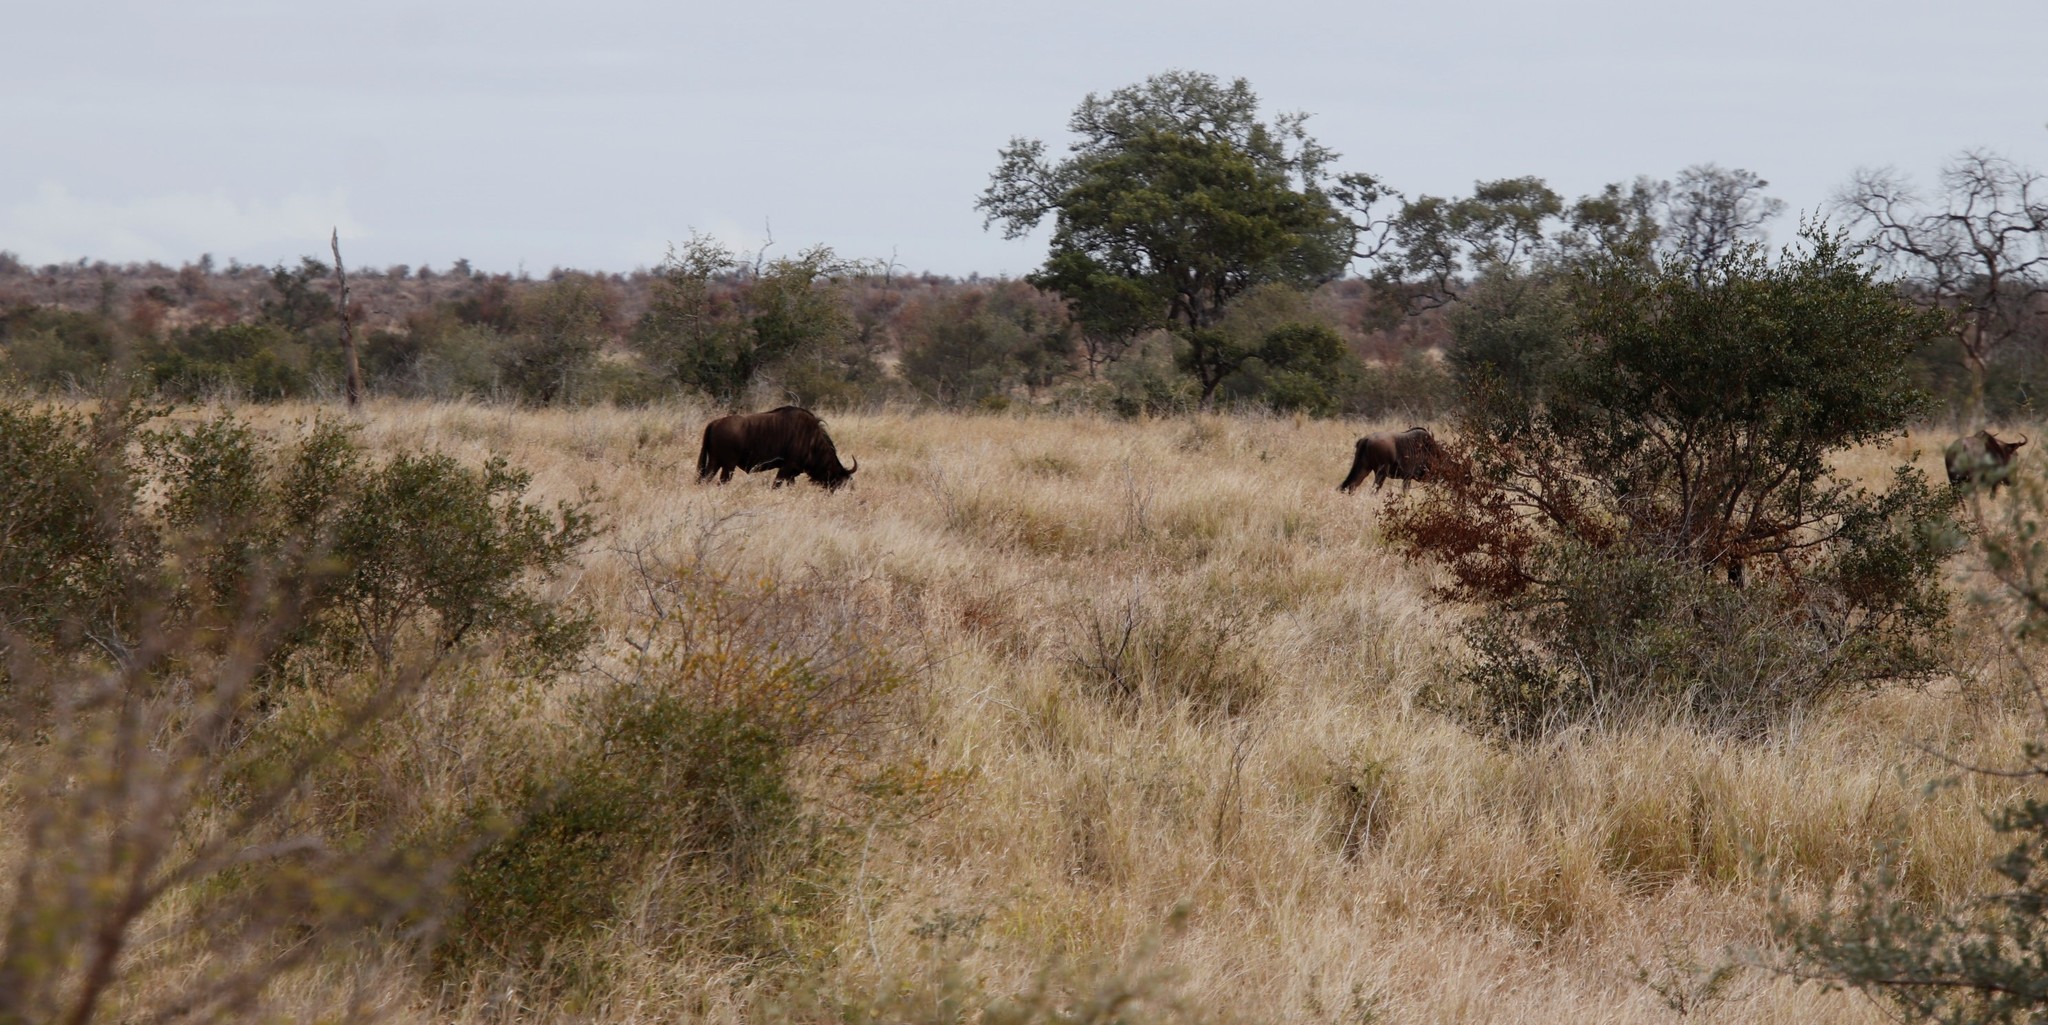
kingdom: Animalia
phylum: Chordata
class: Mammalia
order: Artiodactyla
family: Bovidae
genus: Connochaetes
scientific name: Connochaetes taurinus
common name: Blue wildebeest
